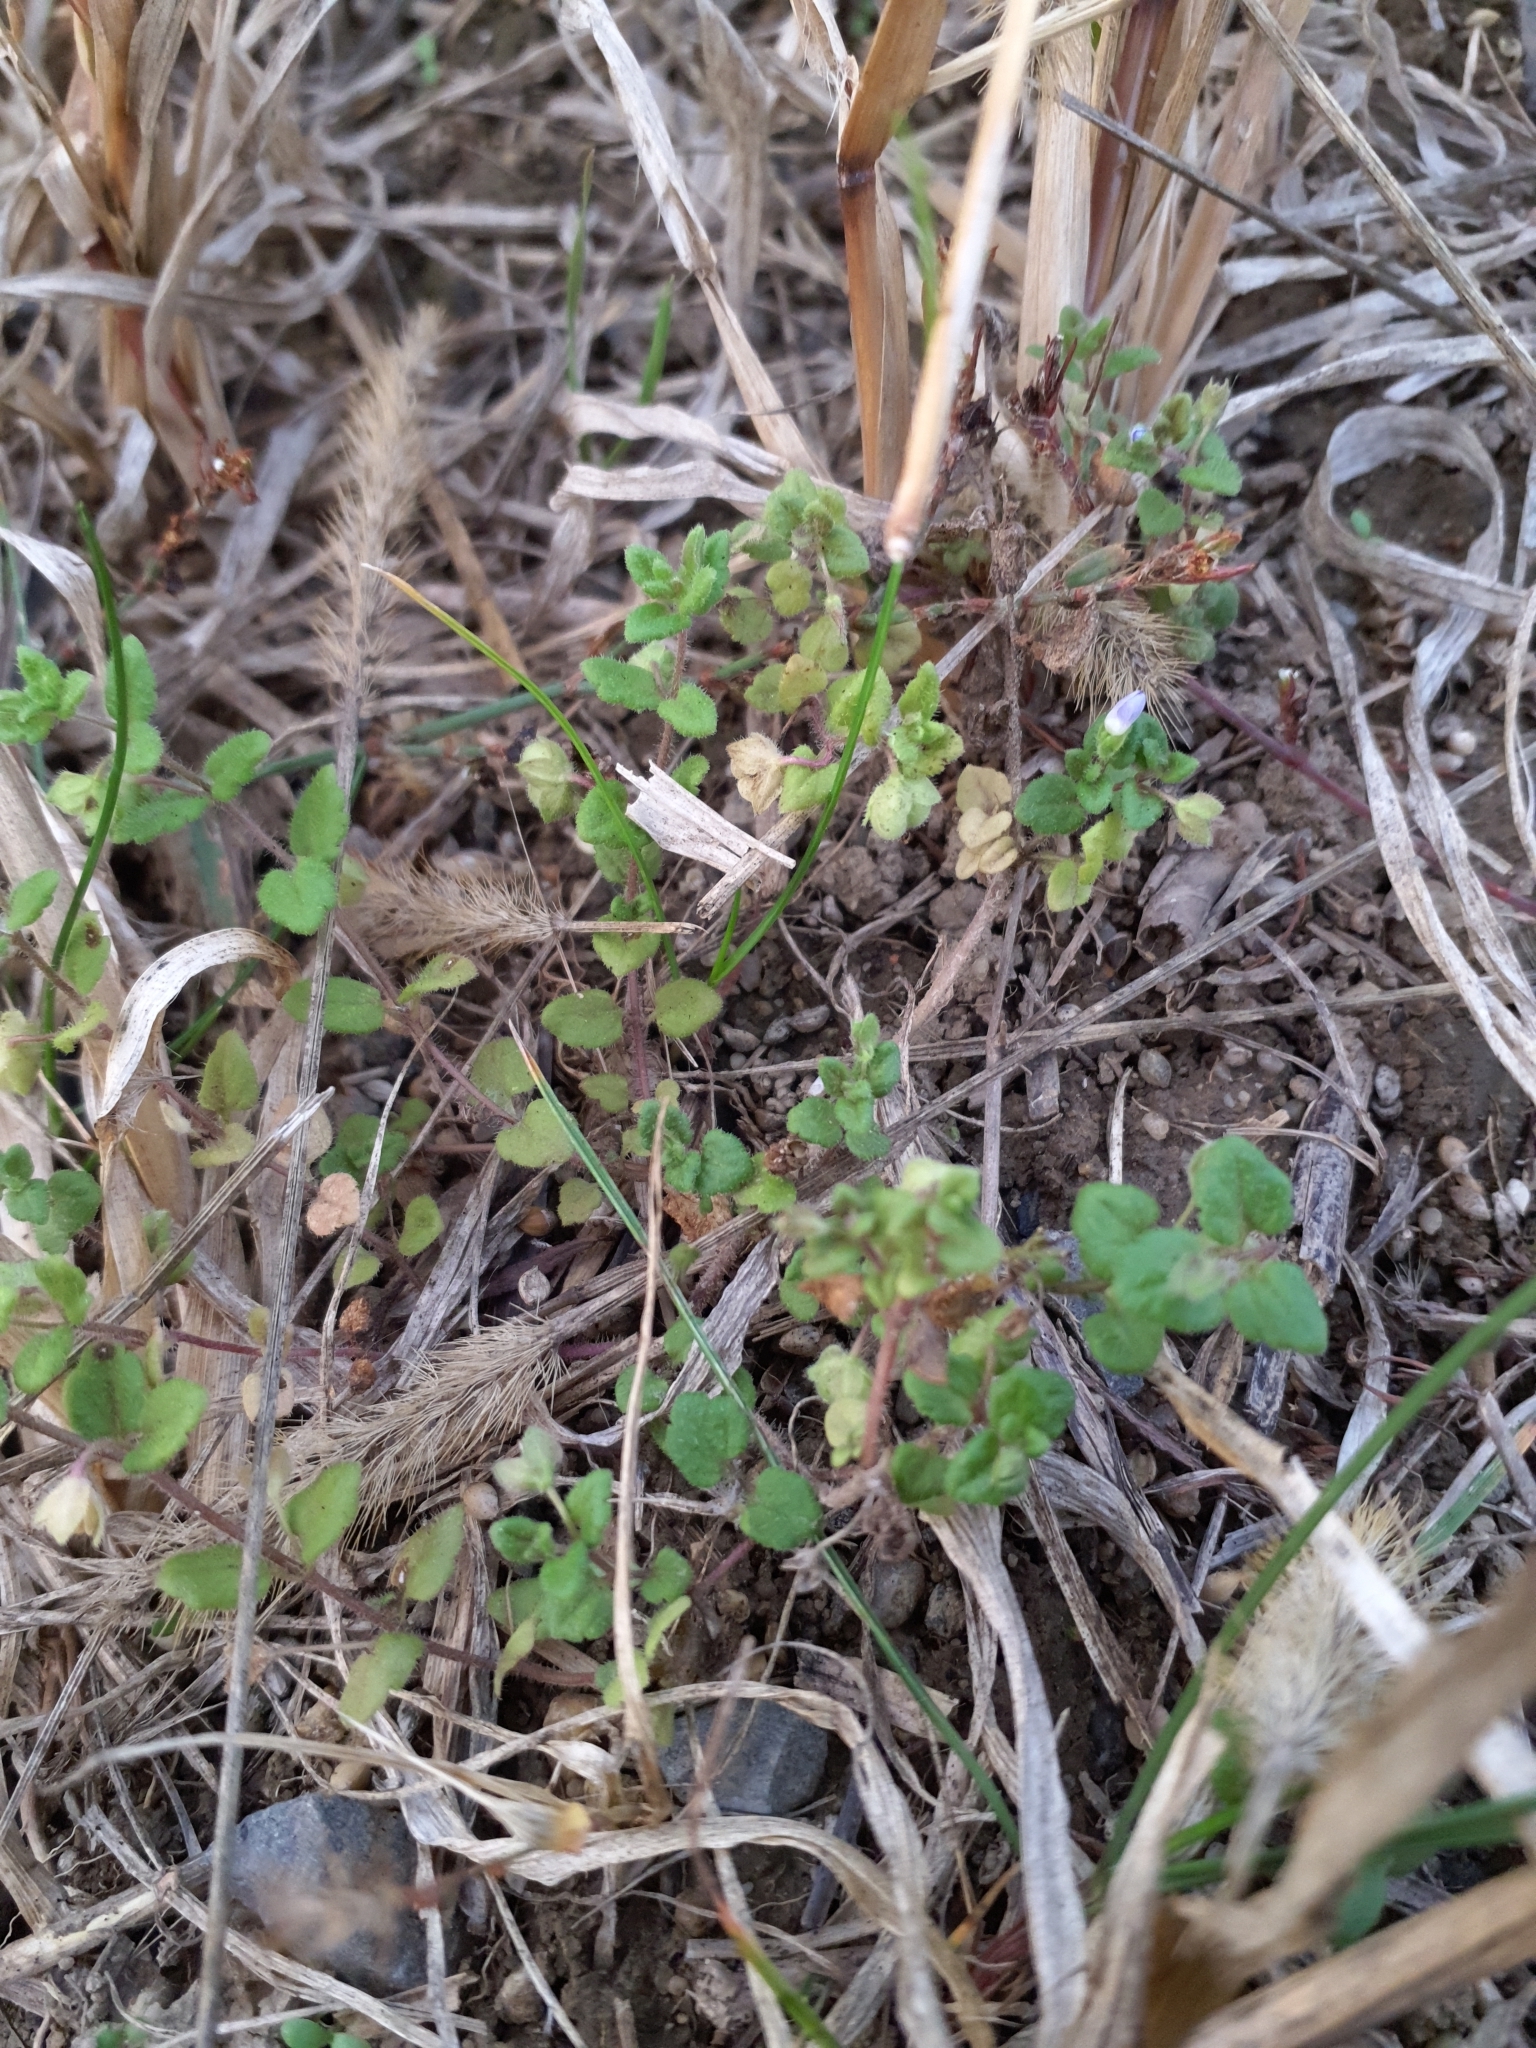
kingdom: Plantae
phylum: Tracheophyta
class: Magnoliopsida
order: Lamiales
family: Plantaginaceae
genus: Veronica
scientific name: Veronica polita
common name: Grey field-speedwell
